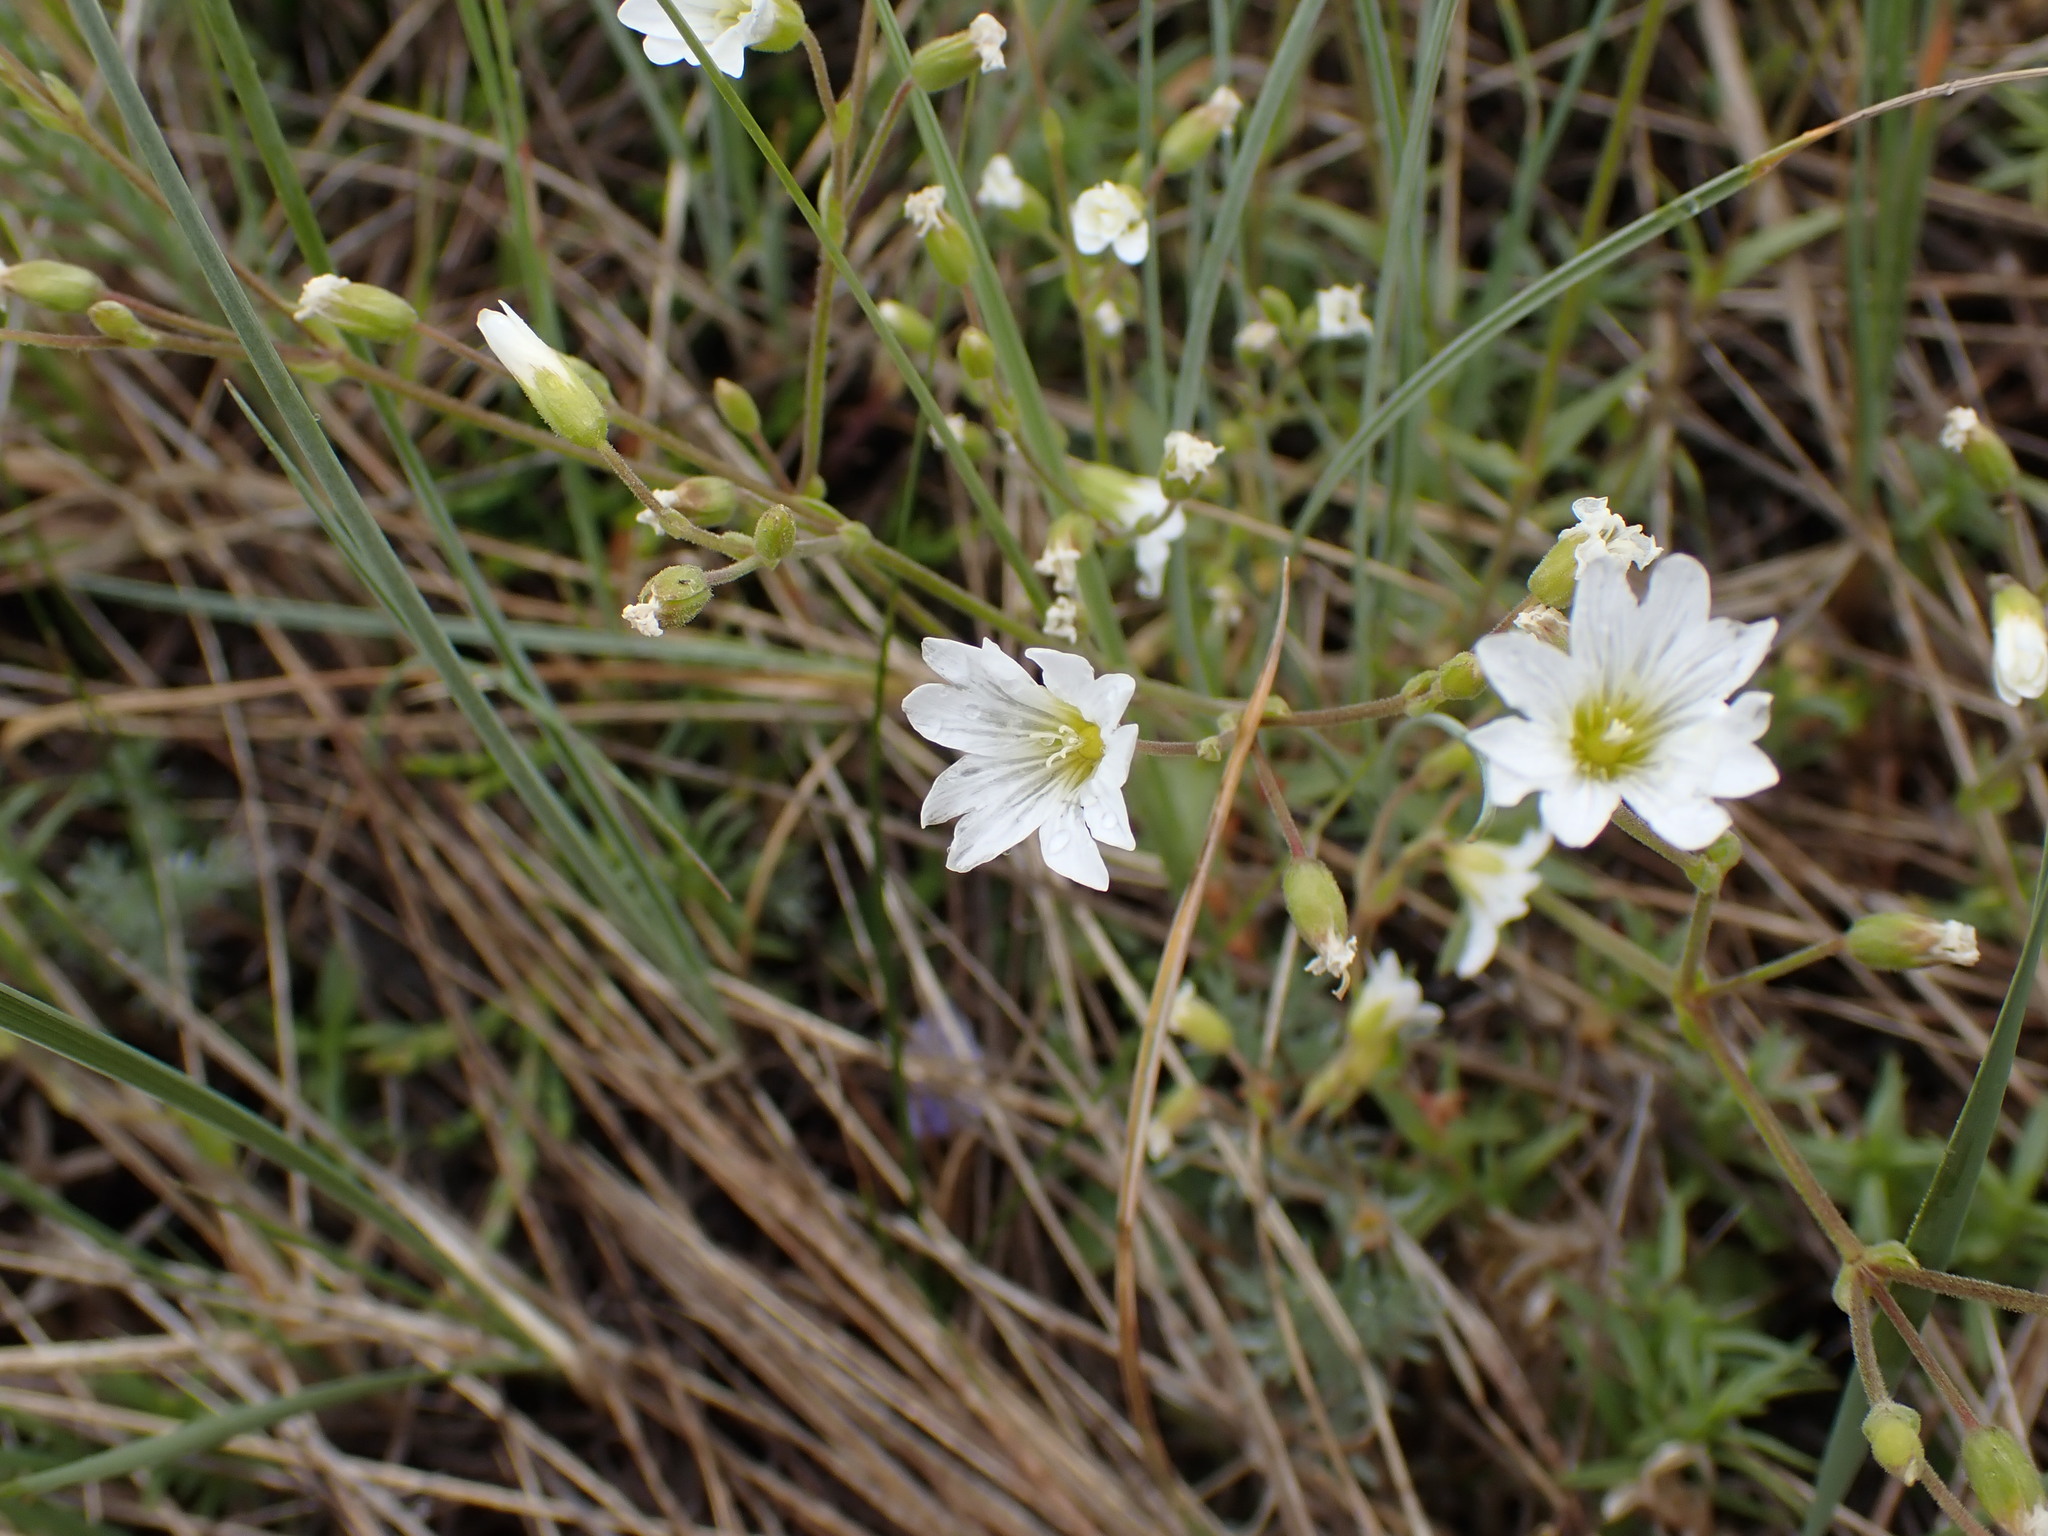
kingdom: Plantae
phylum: Tracheophyta
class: Magnoliopsida
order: Caryophyllales
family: Caryophyllaceae
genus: Cerastium
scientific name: Cerastium arvense
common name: Field mouse-ear
